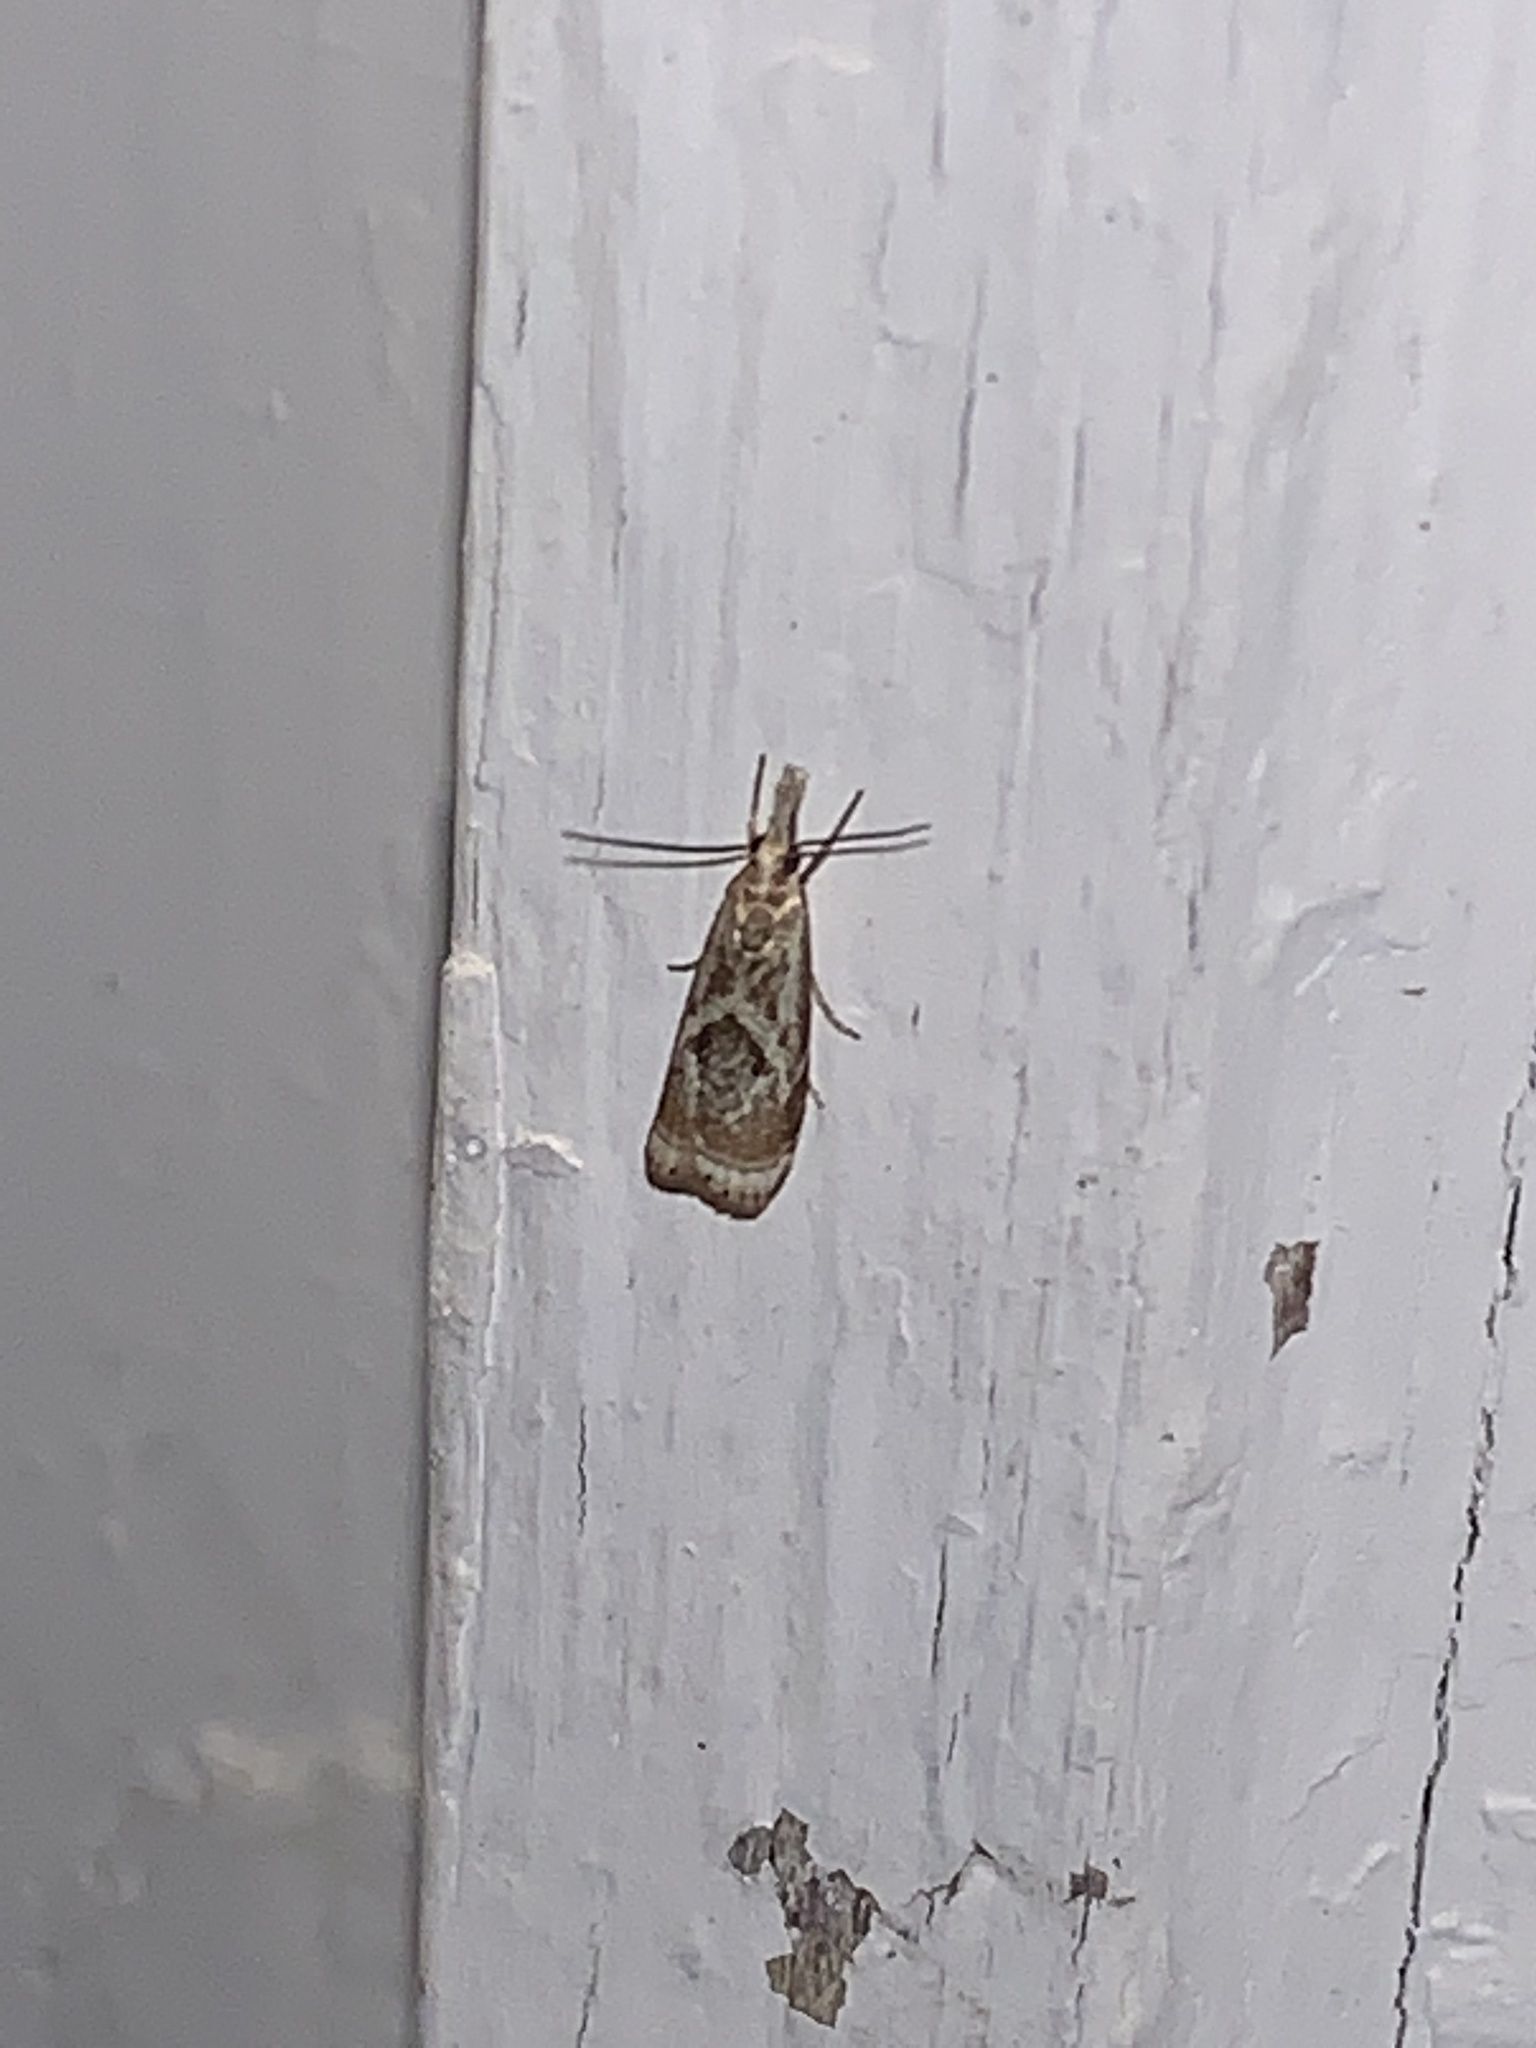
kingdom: Animalia
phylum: Arthropoda
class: Insecta
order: Lepidoptera
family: Crambidae
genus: Microcrambus
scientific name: Microcrambus elegans
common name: Elegant grass-veneer
